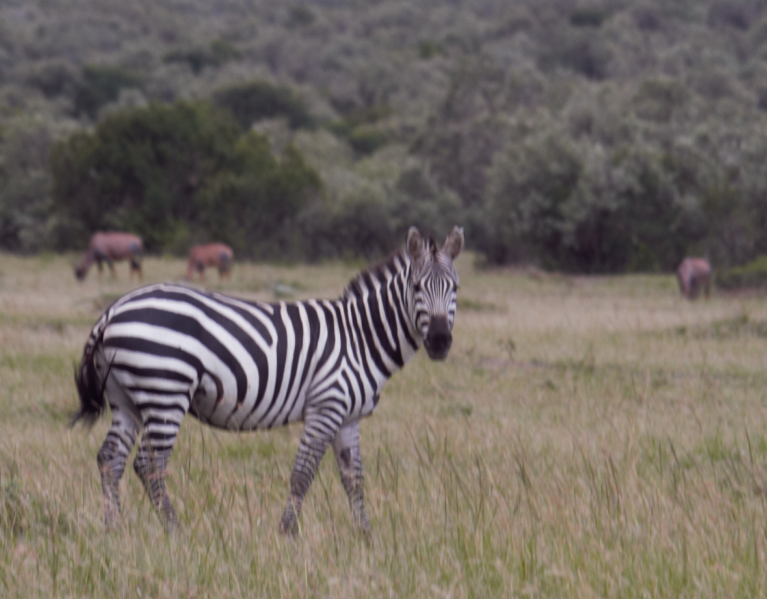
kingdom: Animalia
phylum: Chordata
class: Mammalia
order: Perissodactyla
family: Equidae
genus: Equus
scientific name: Equus quagga
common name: Plains zebra
